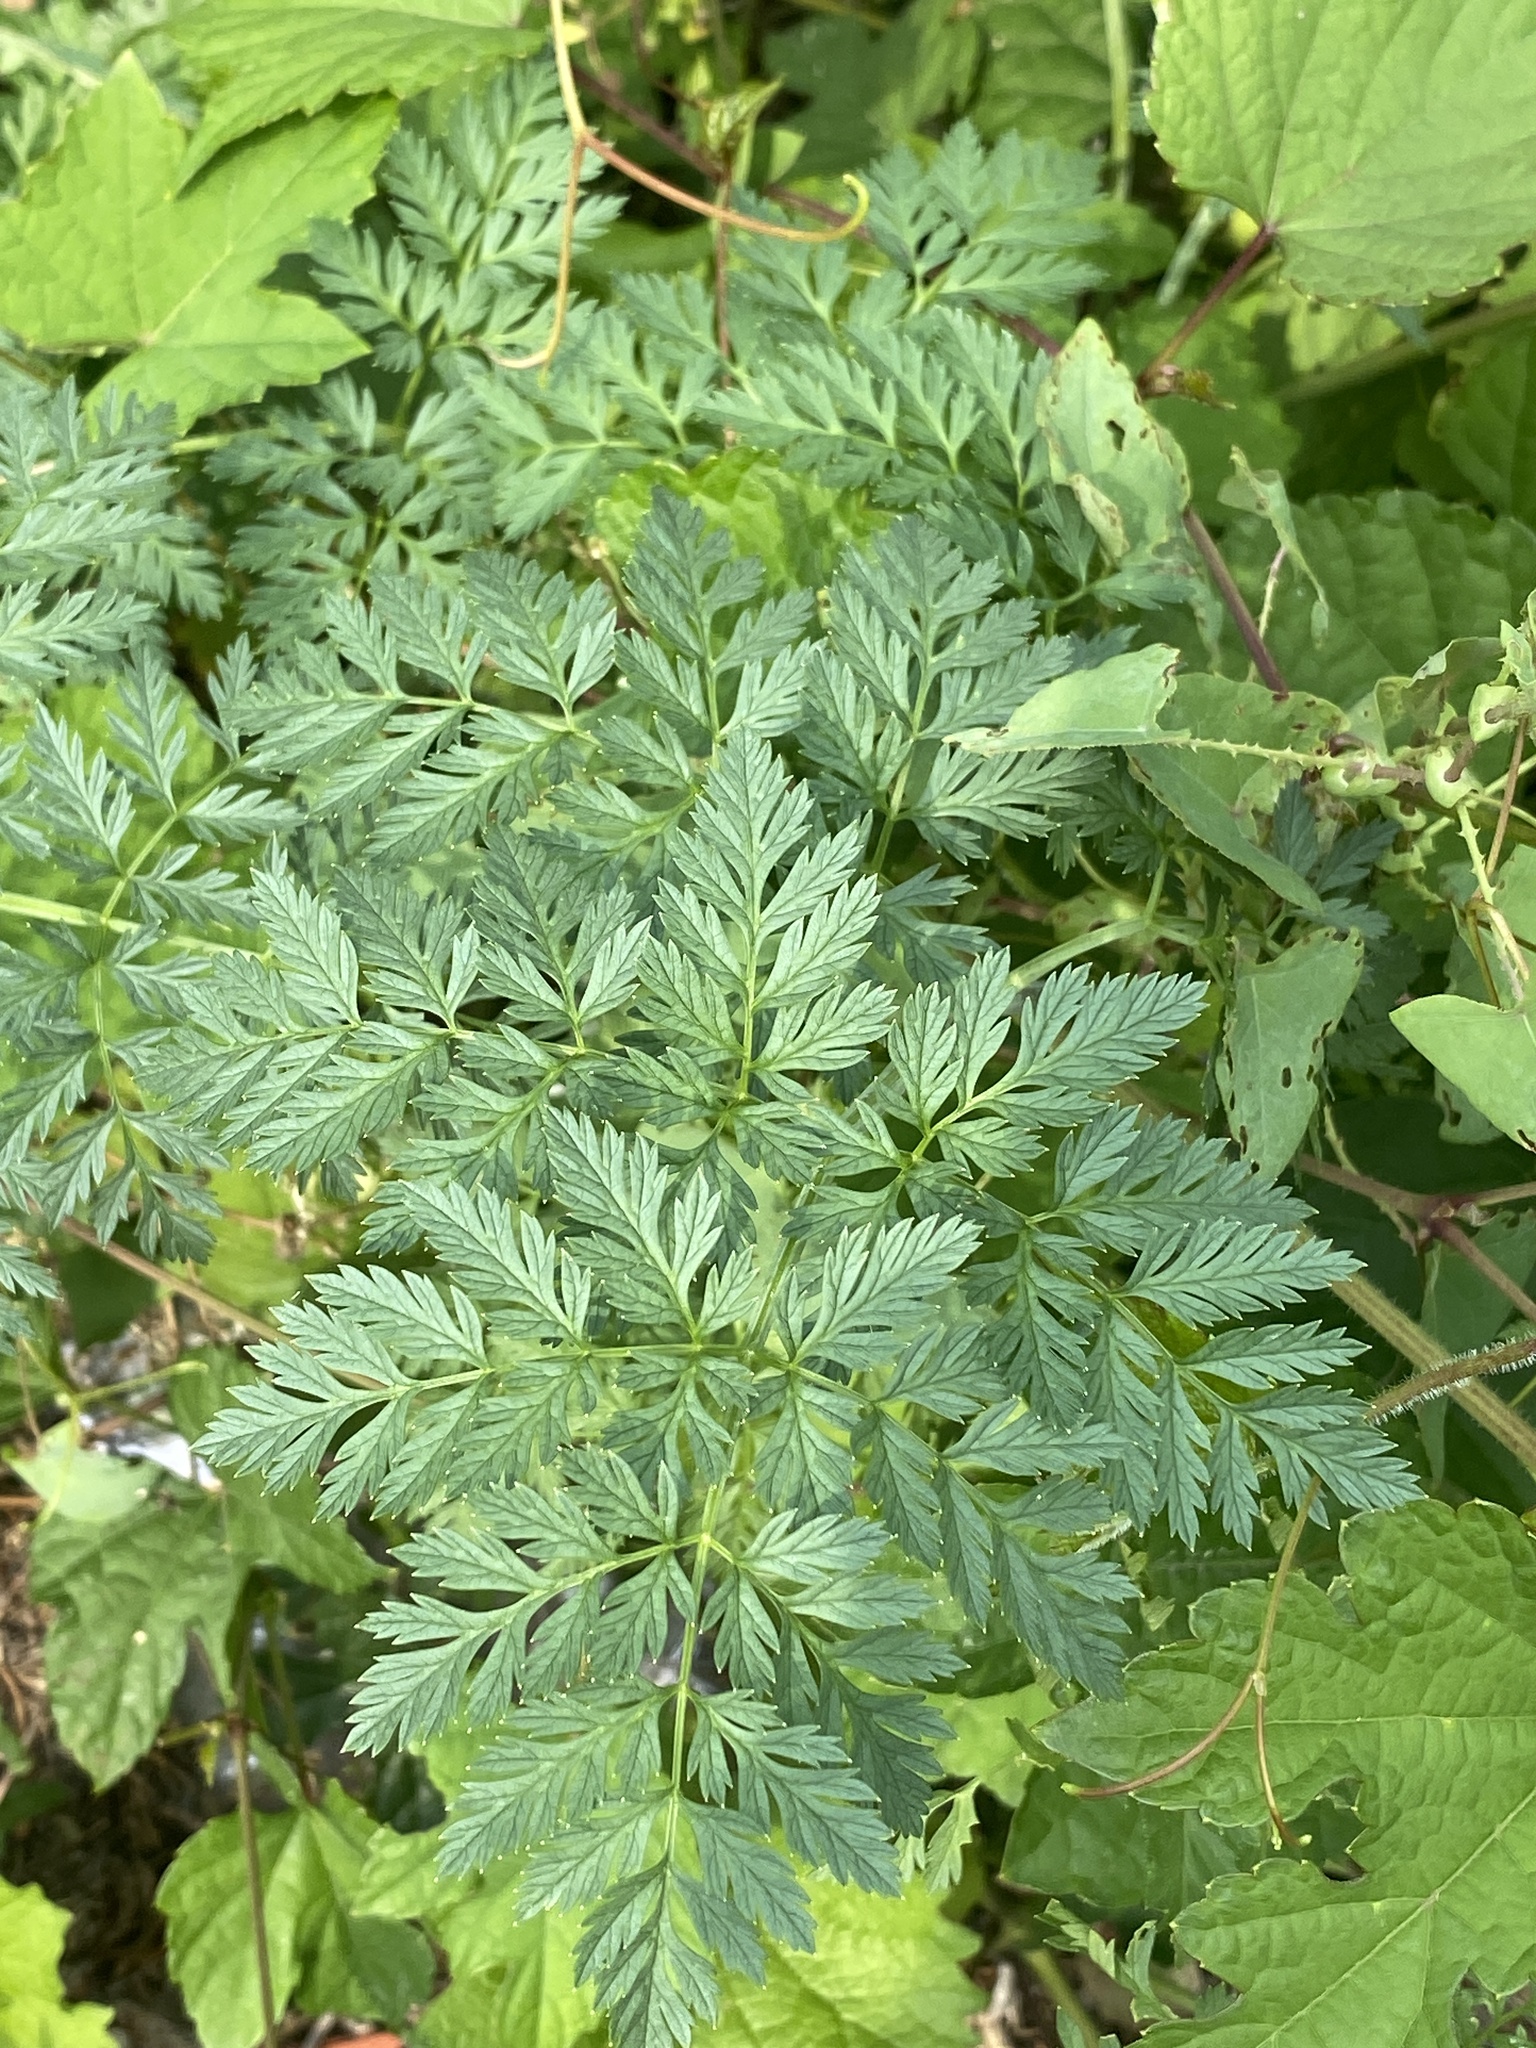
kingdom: Plantae
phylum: Tracheophyta
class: Magnoliopsida
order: Apiales
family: Apiaceae
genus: Conium
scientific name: Conium maculatum
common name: Hemlock
